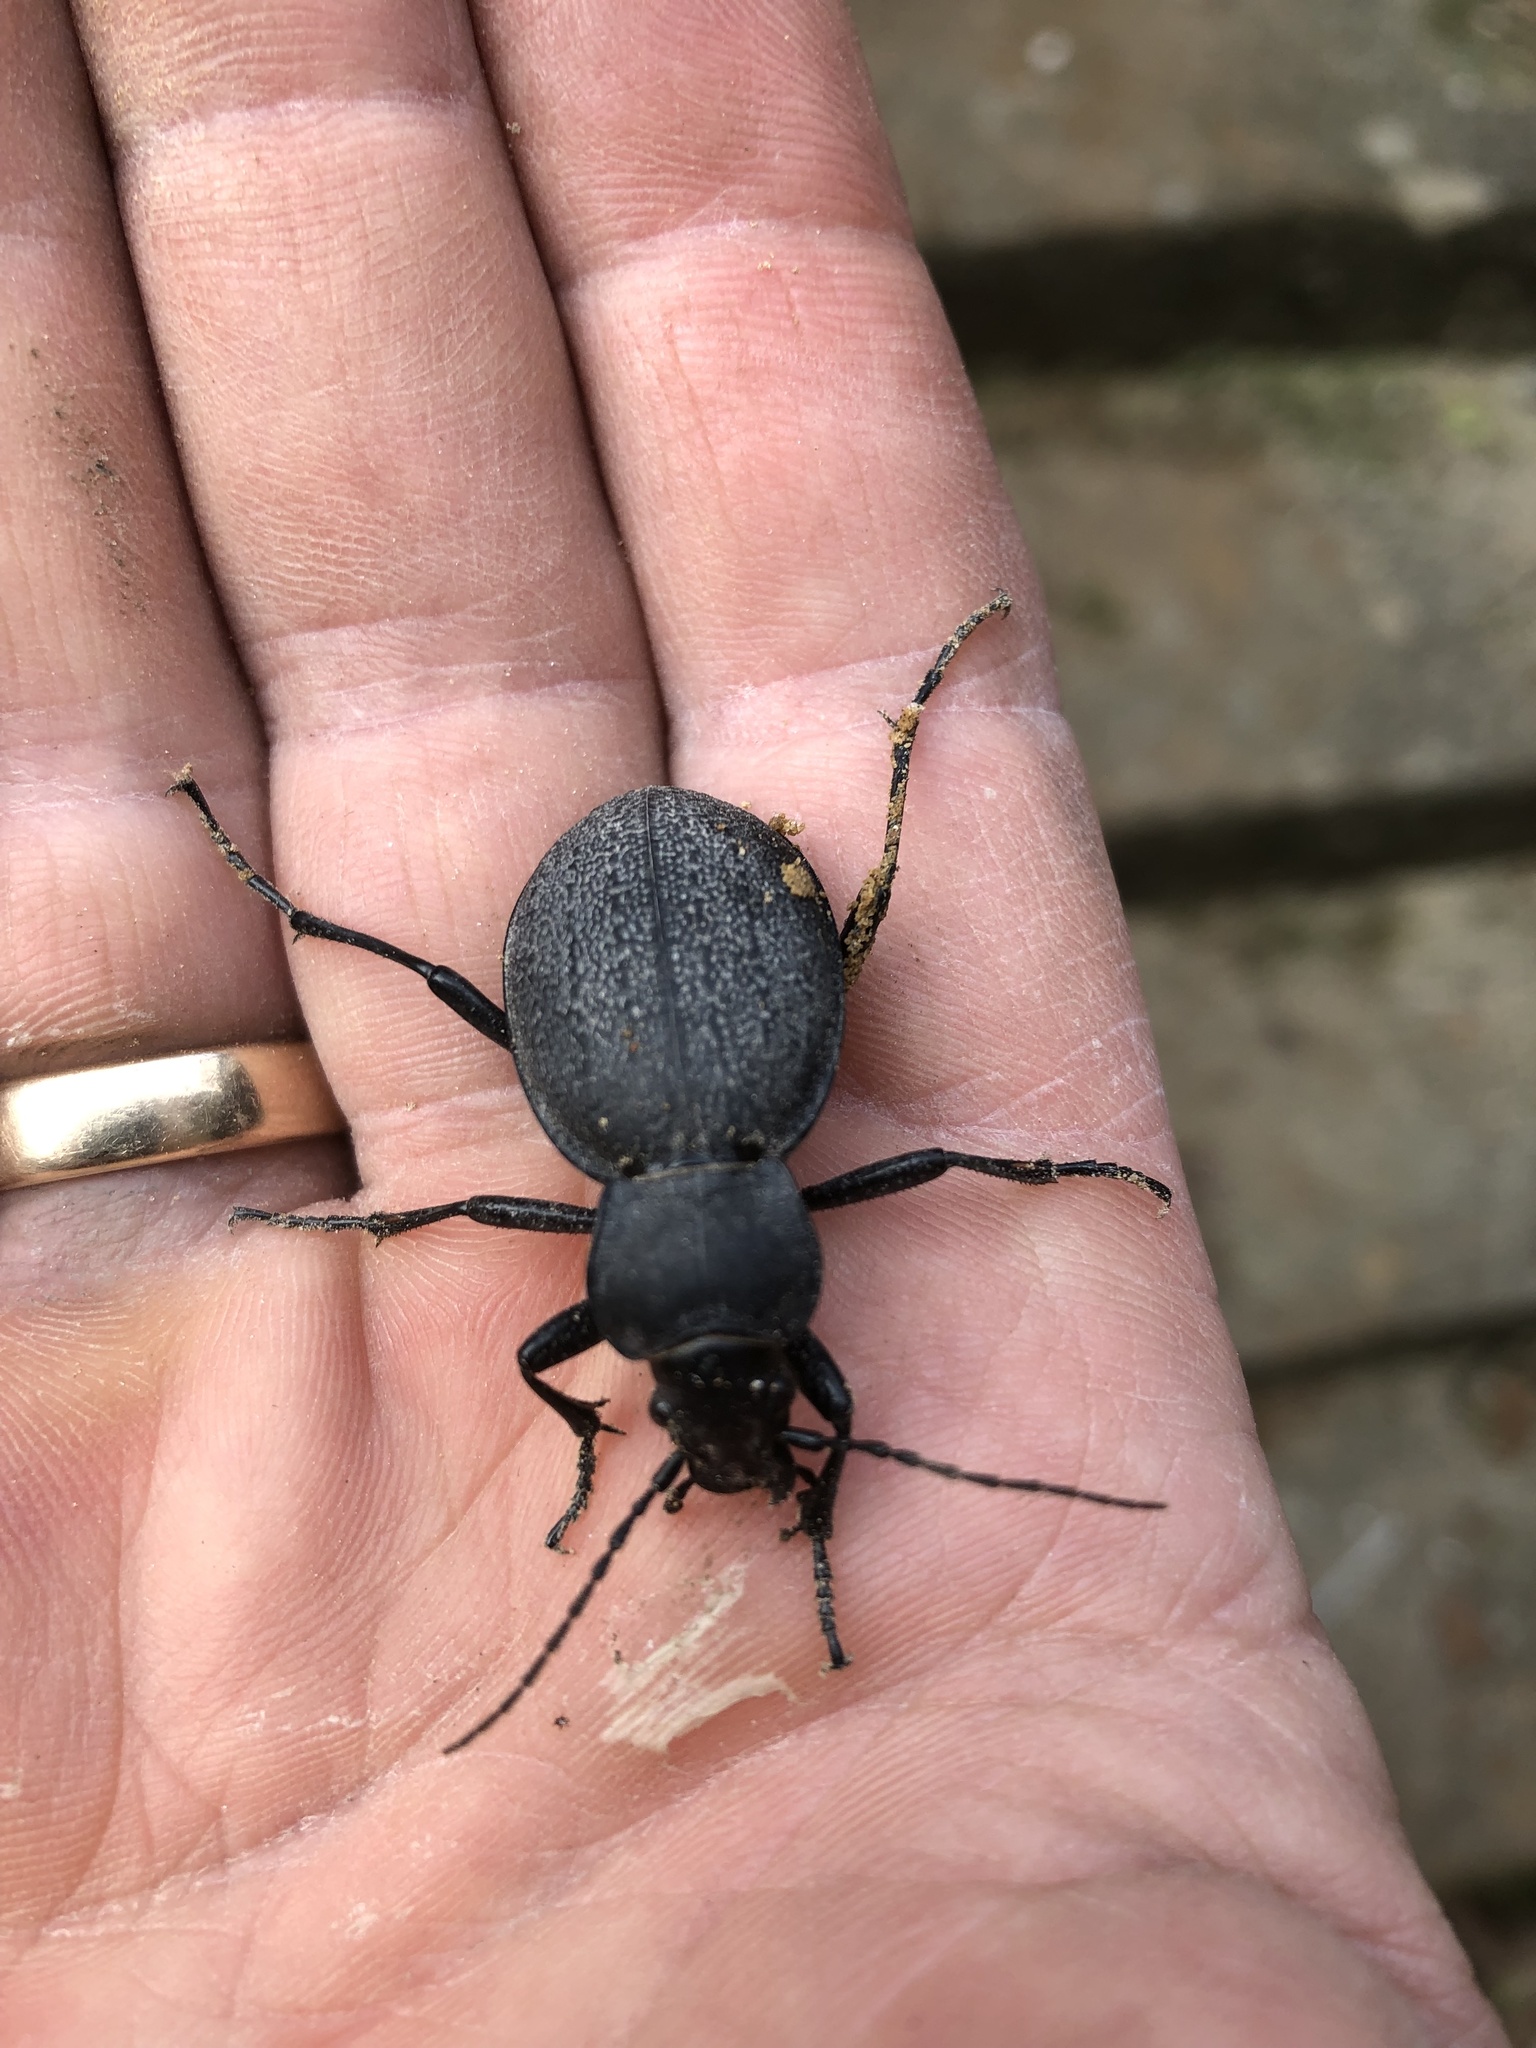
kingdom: Animalia
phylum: Arthropoda
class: Insecta
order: Coleoptera
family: Carabidae
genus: Carabus
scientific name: Carabus coriaceus
